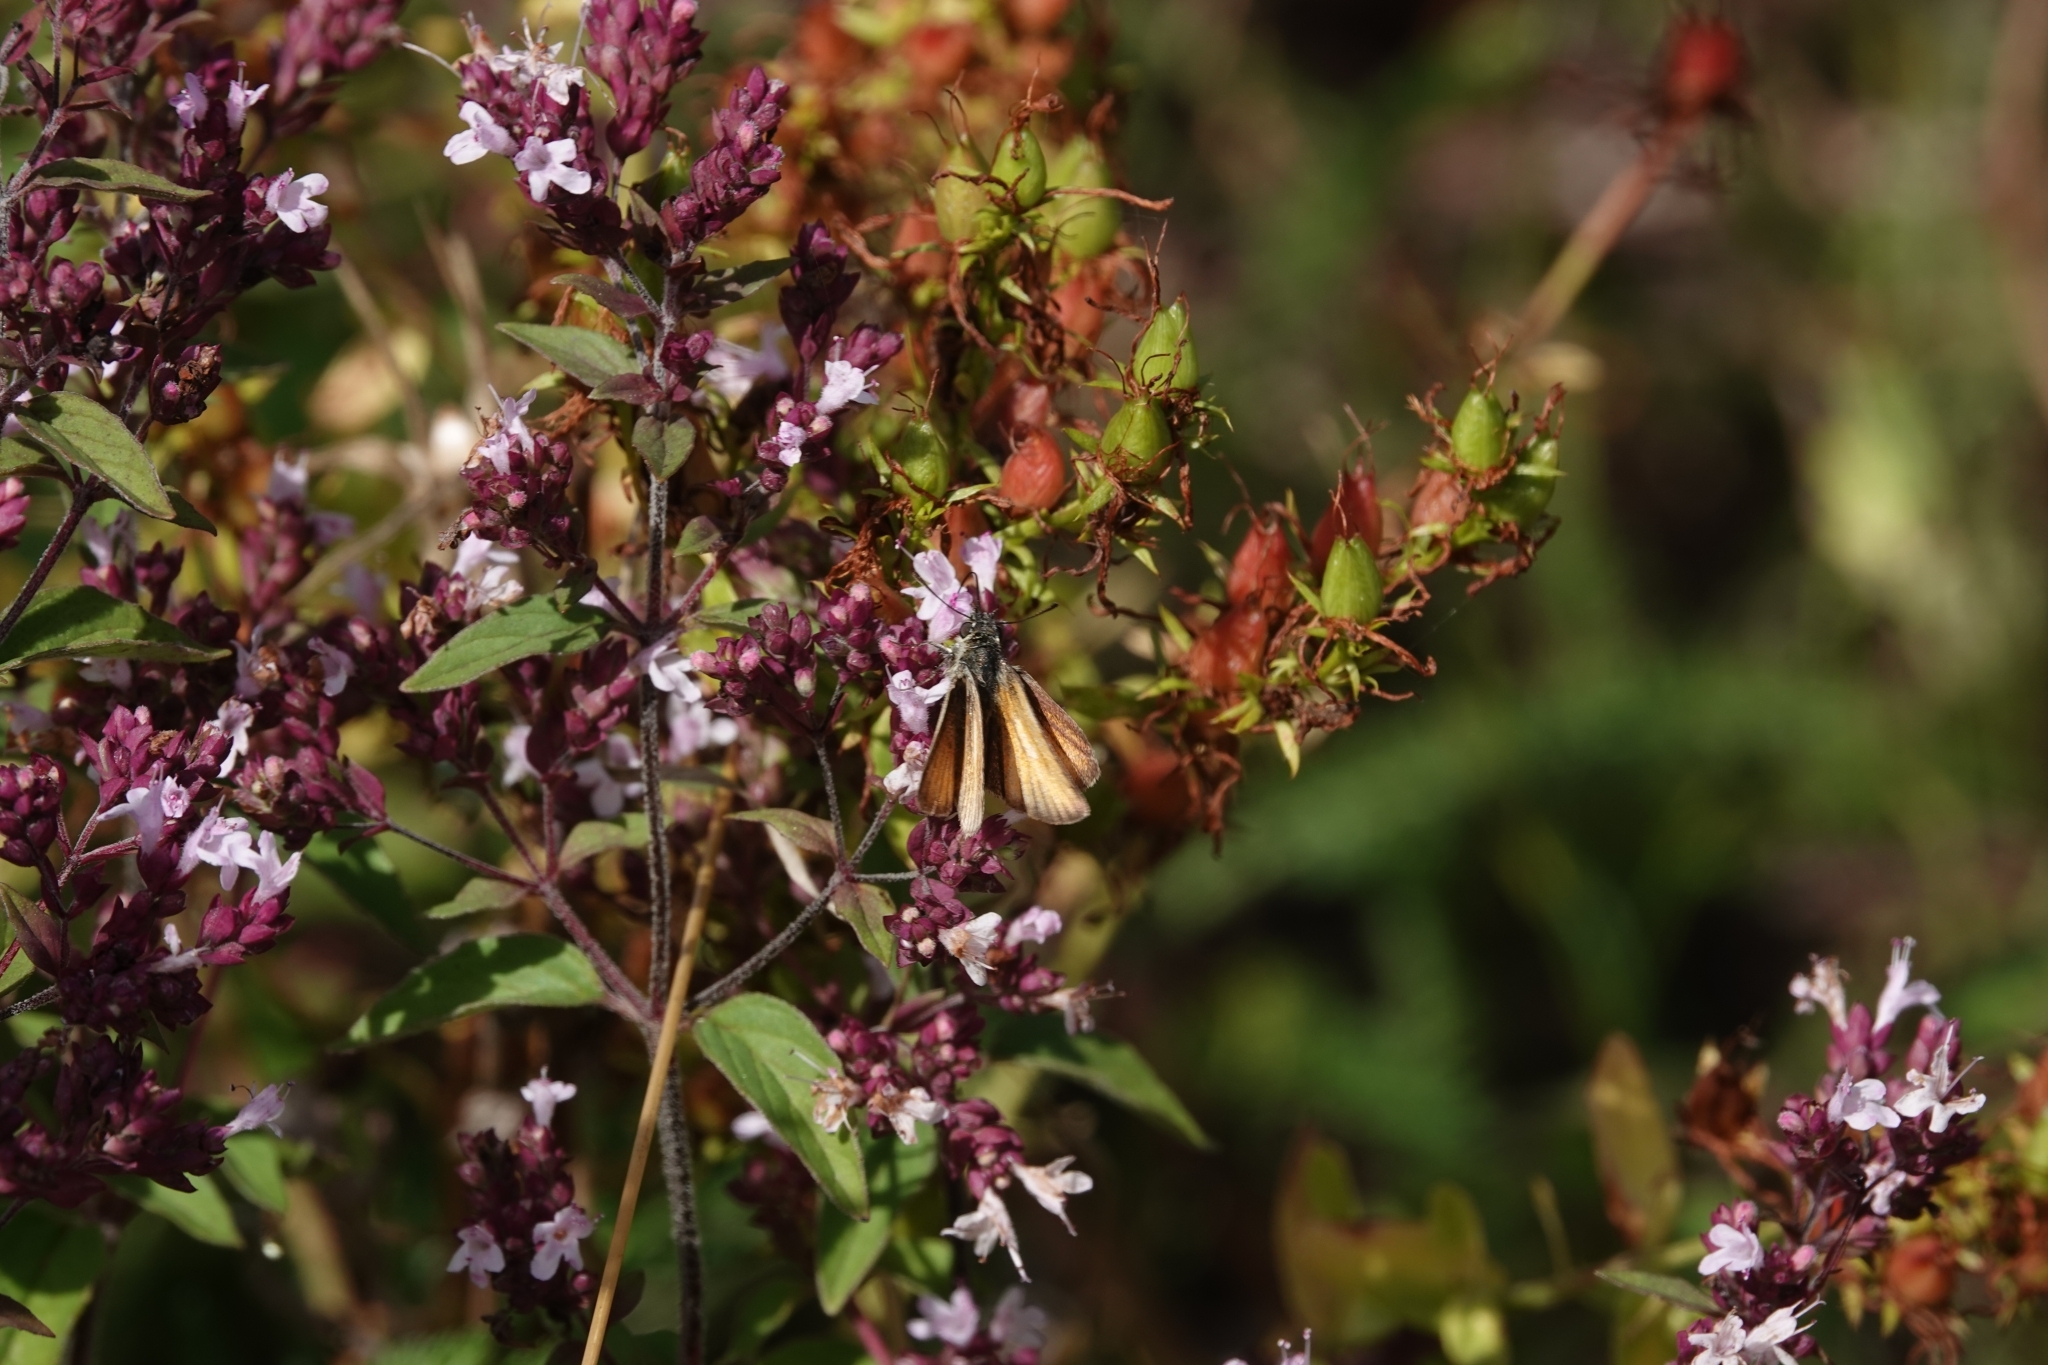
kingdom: Animalia
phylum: Arthropoda
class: Insecta
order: Lepidoptera
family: Hesperiidae
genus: Thymelicus
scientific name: Thymelicus lineola
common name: Essex skipper
